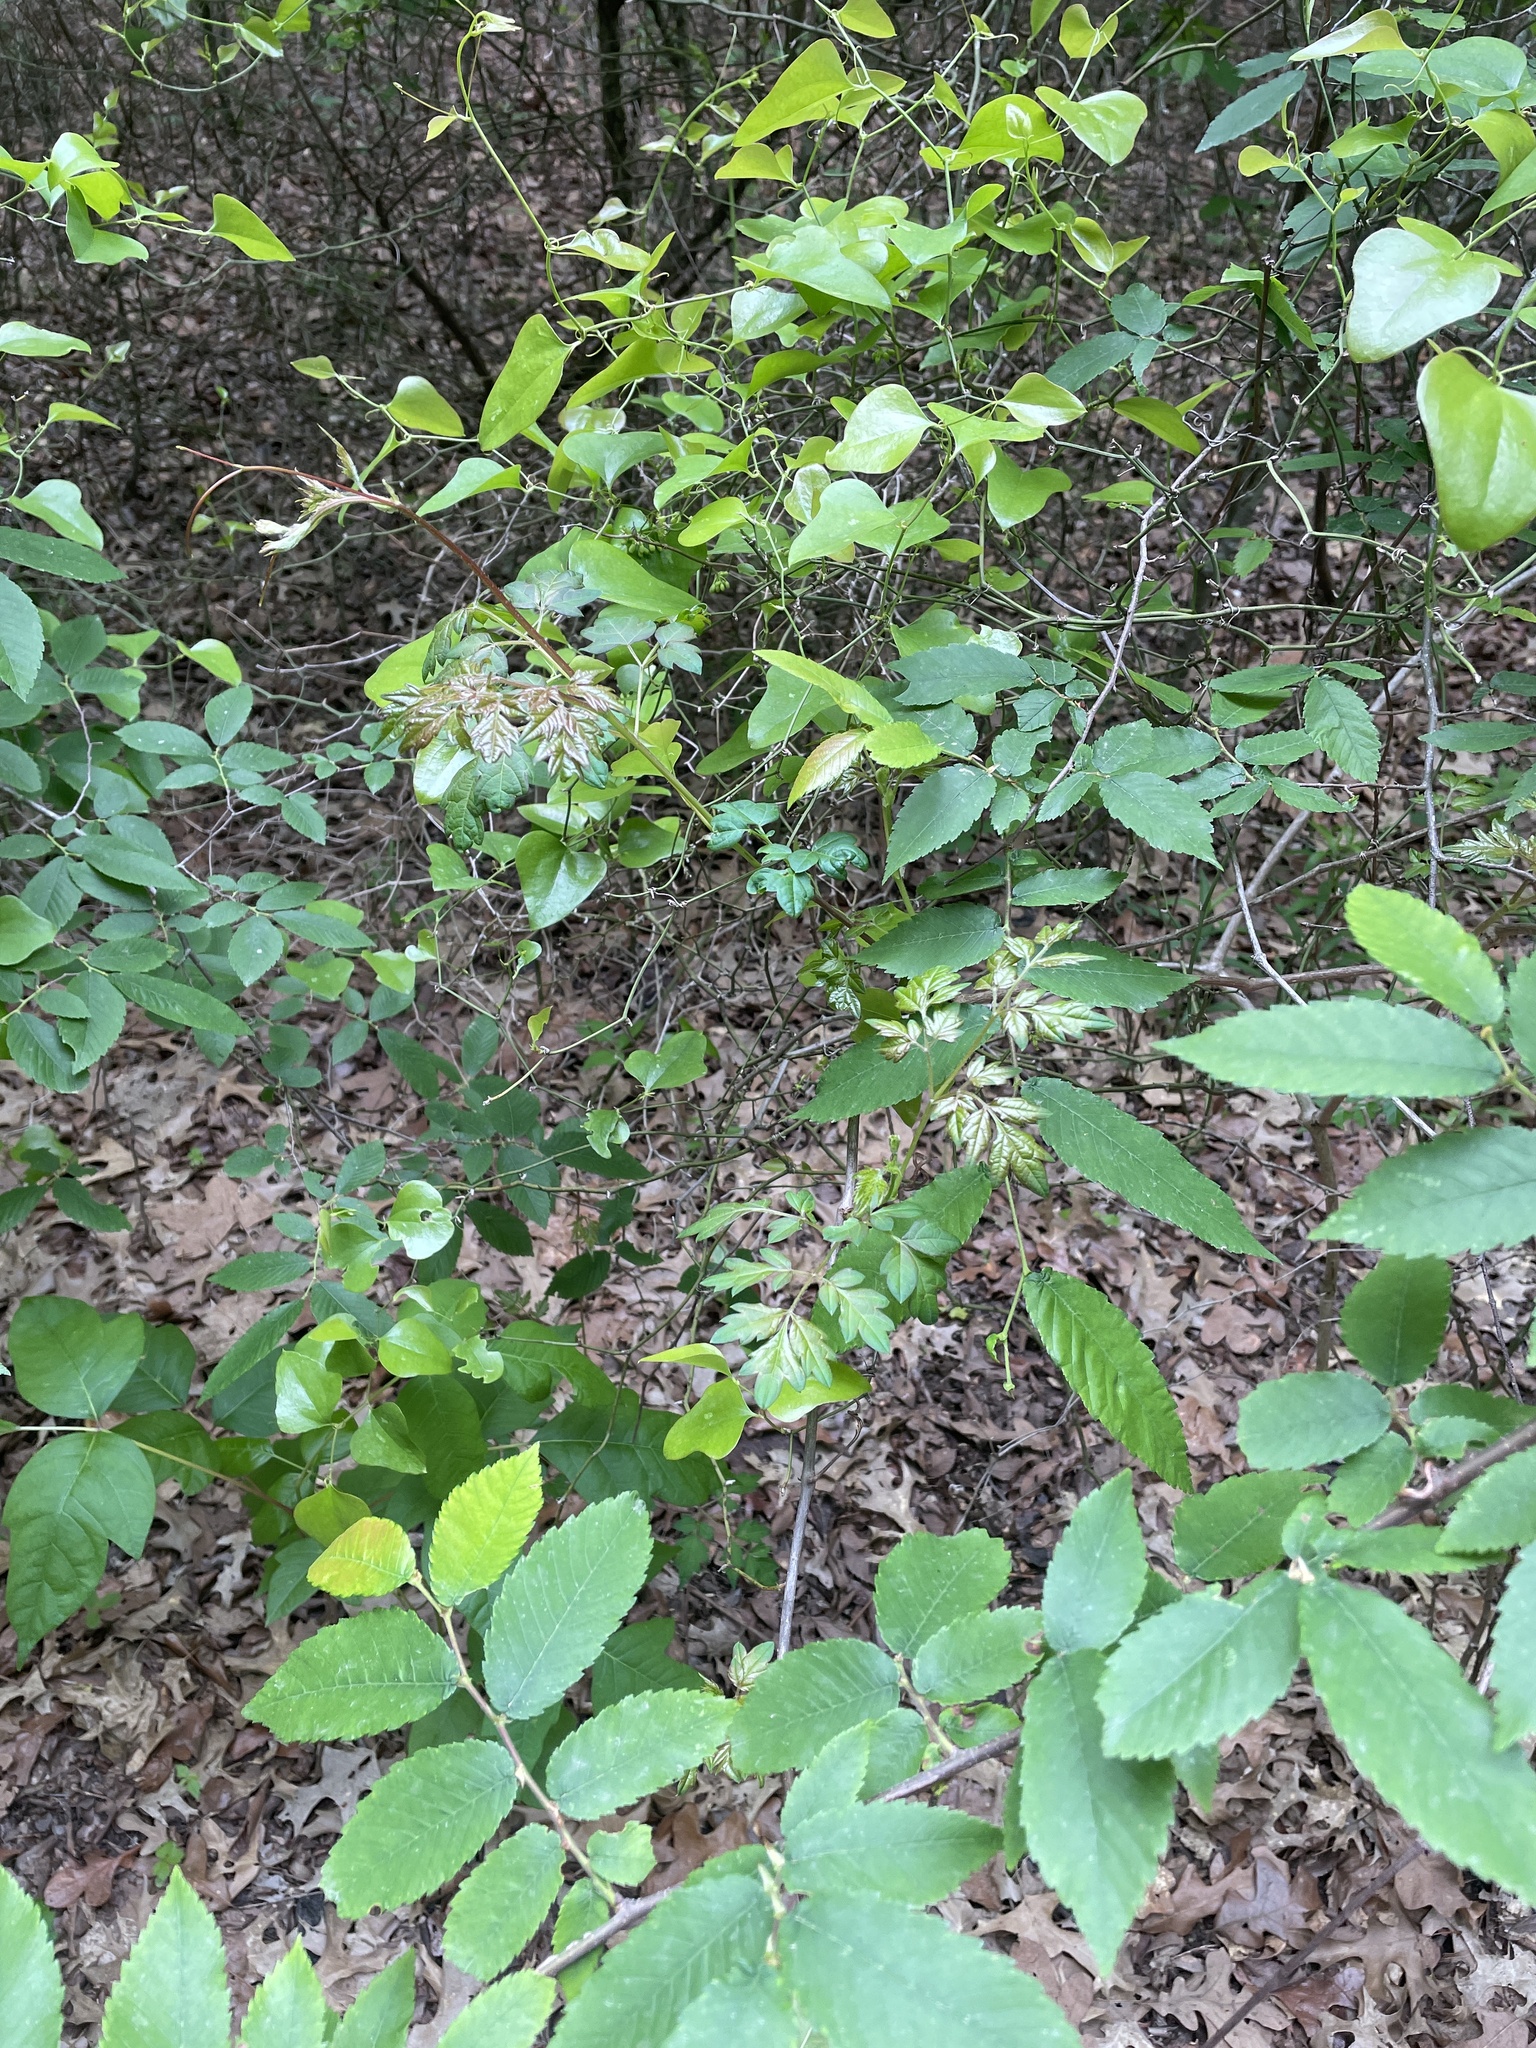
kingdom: Plantae
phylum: Tracheophyta
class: Magnoliopsida
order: Vitales
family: Vitaceae
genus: Nekemias
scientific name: Nekemias arborea
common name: Peppervine
